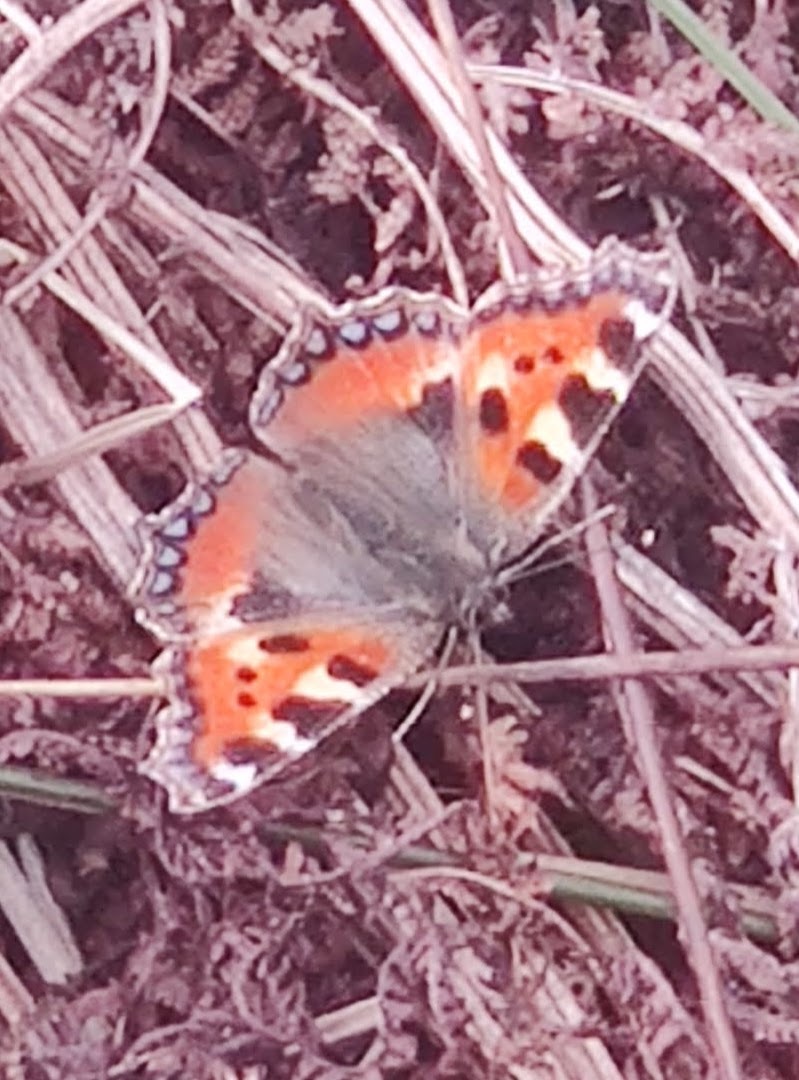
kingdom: Animalia
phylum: Arthropoda
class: Insecta
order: Lepidoptera
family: Nymphalidae
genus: Aglais
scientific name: Aglais urticae
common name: Small tortoiseshell
